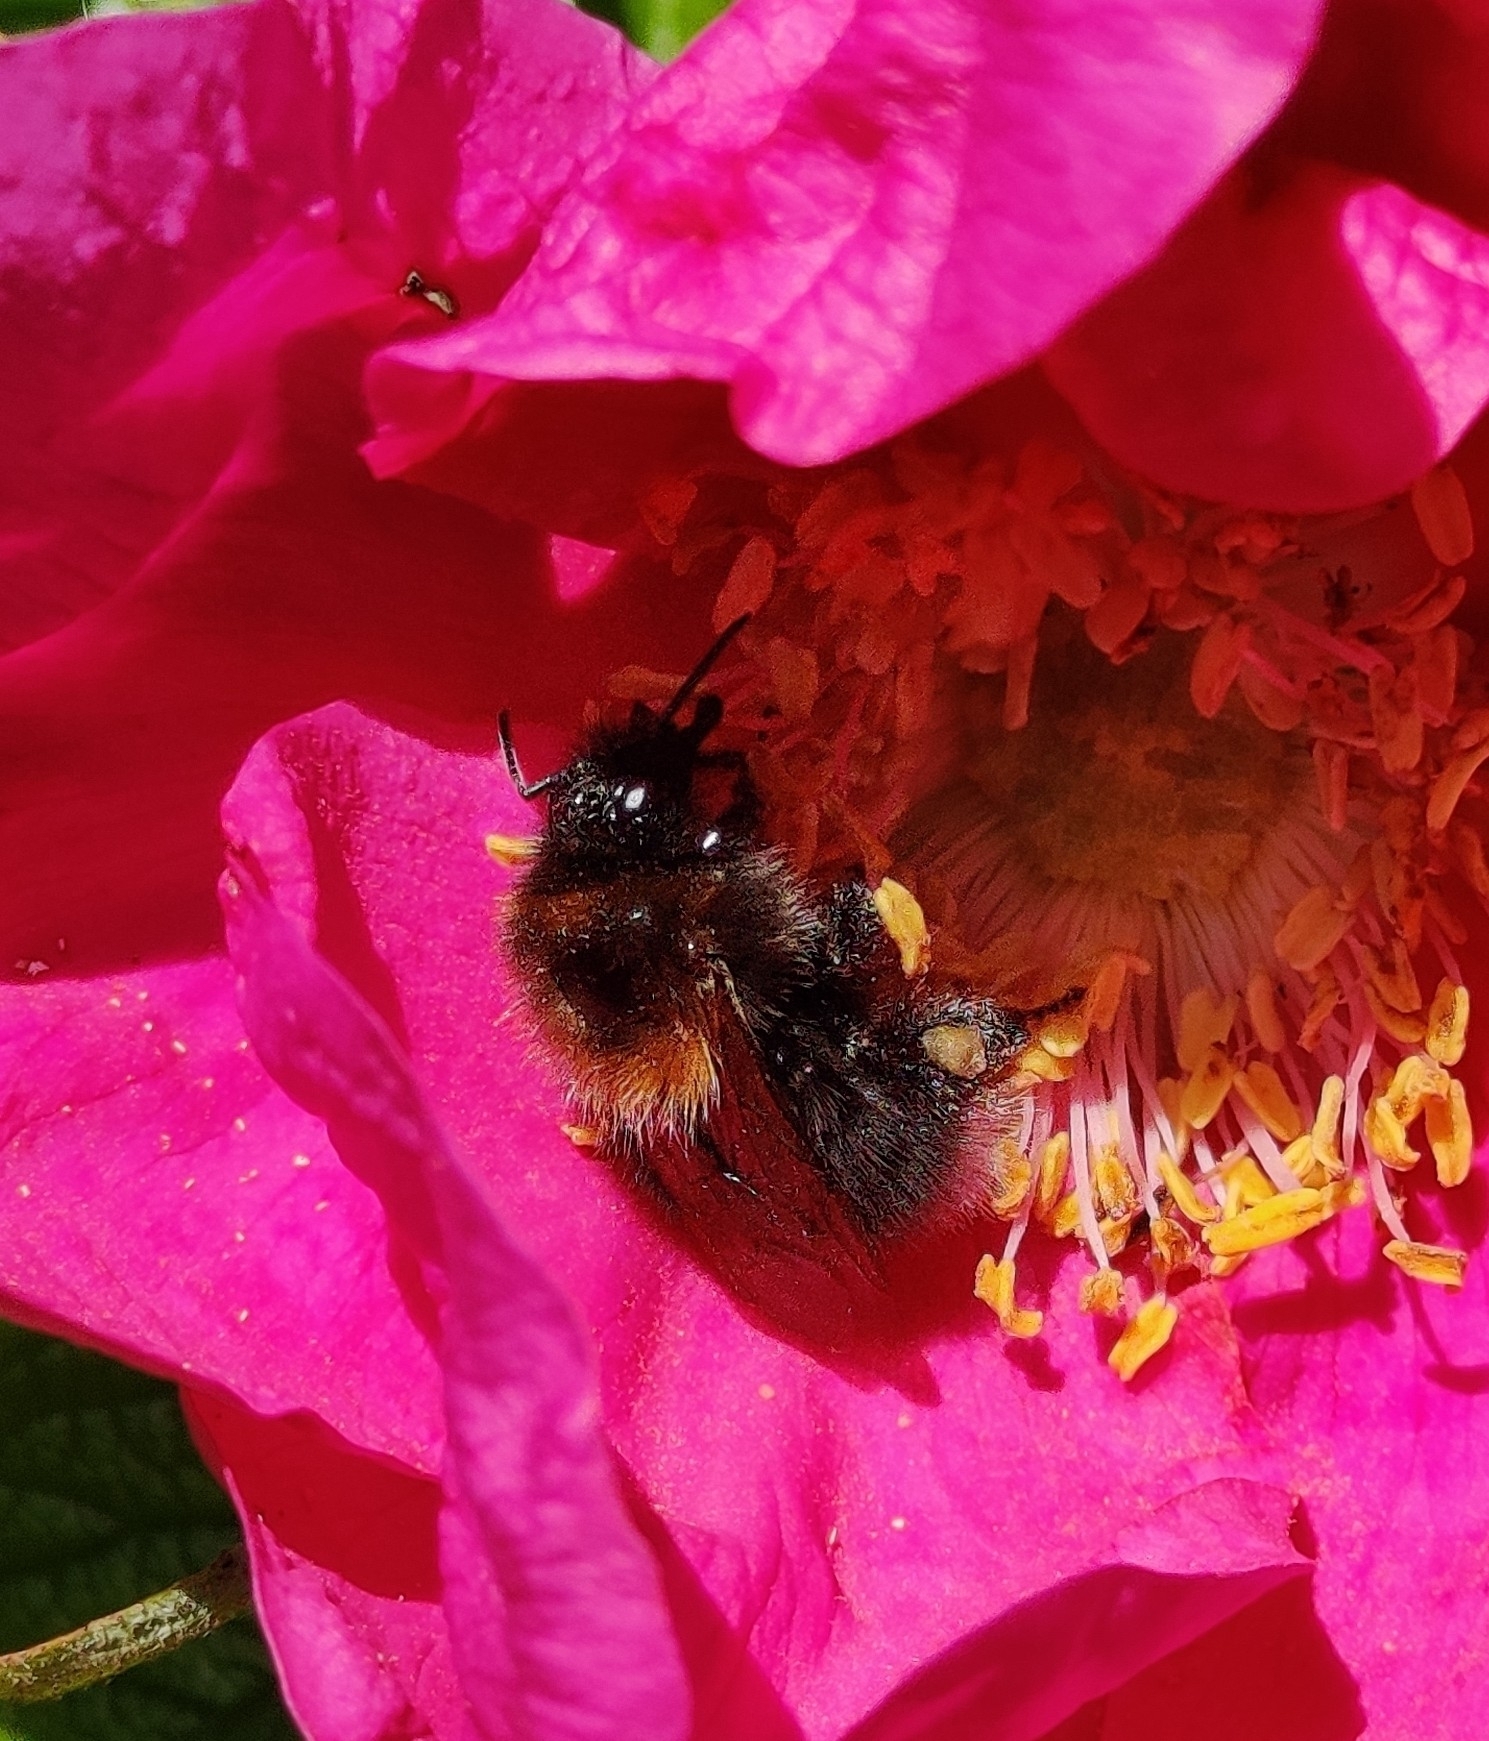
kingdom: Animalia
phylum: Arthropoda
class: Insecta
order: Hymenoptera
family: Apidae
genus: Bombus
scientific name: Bombus hypnorum
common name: New garden bumblebee
